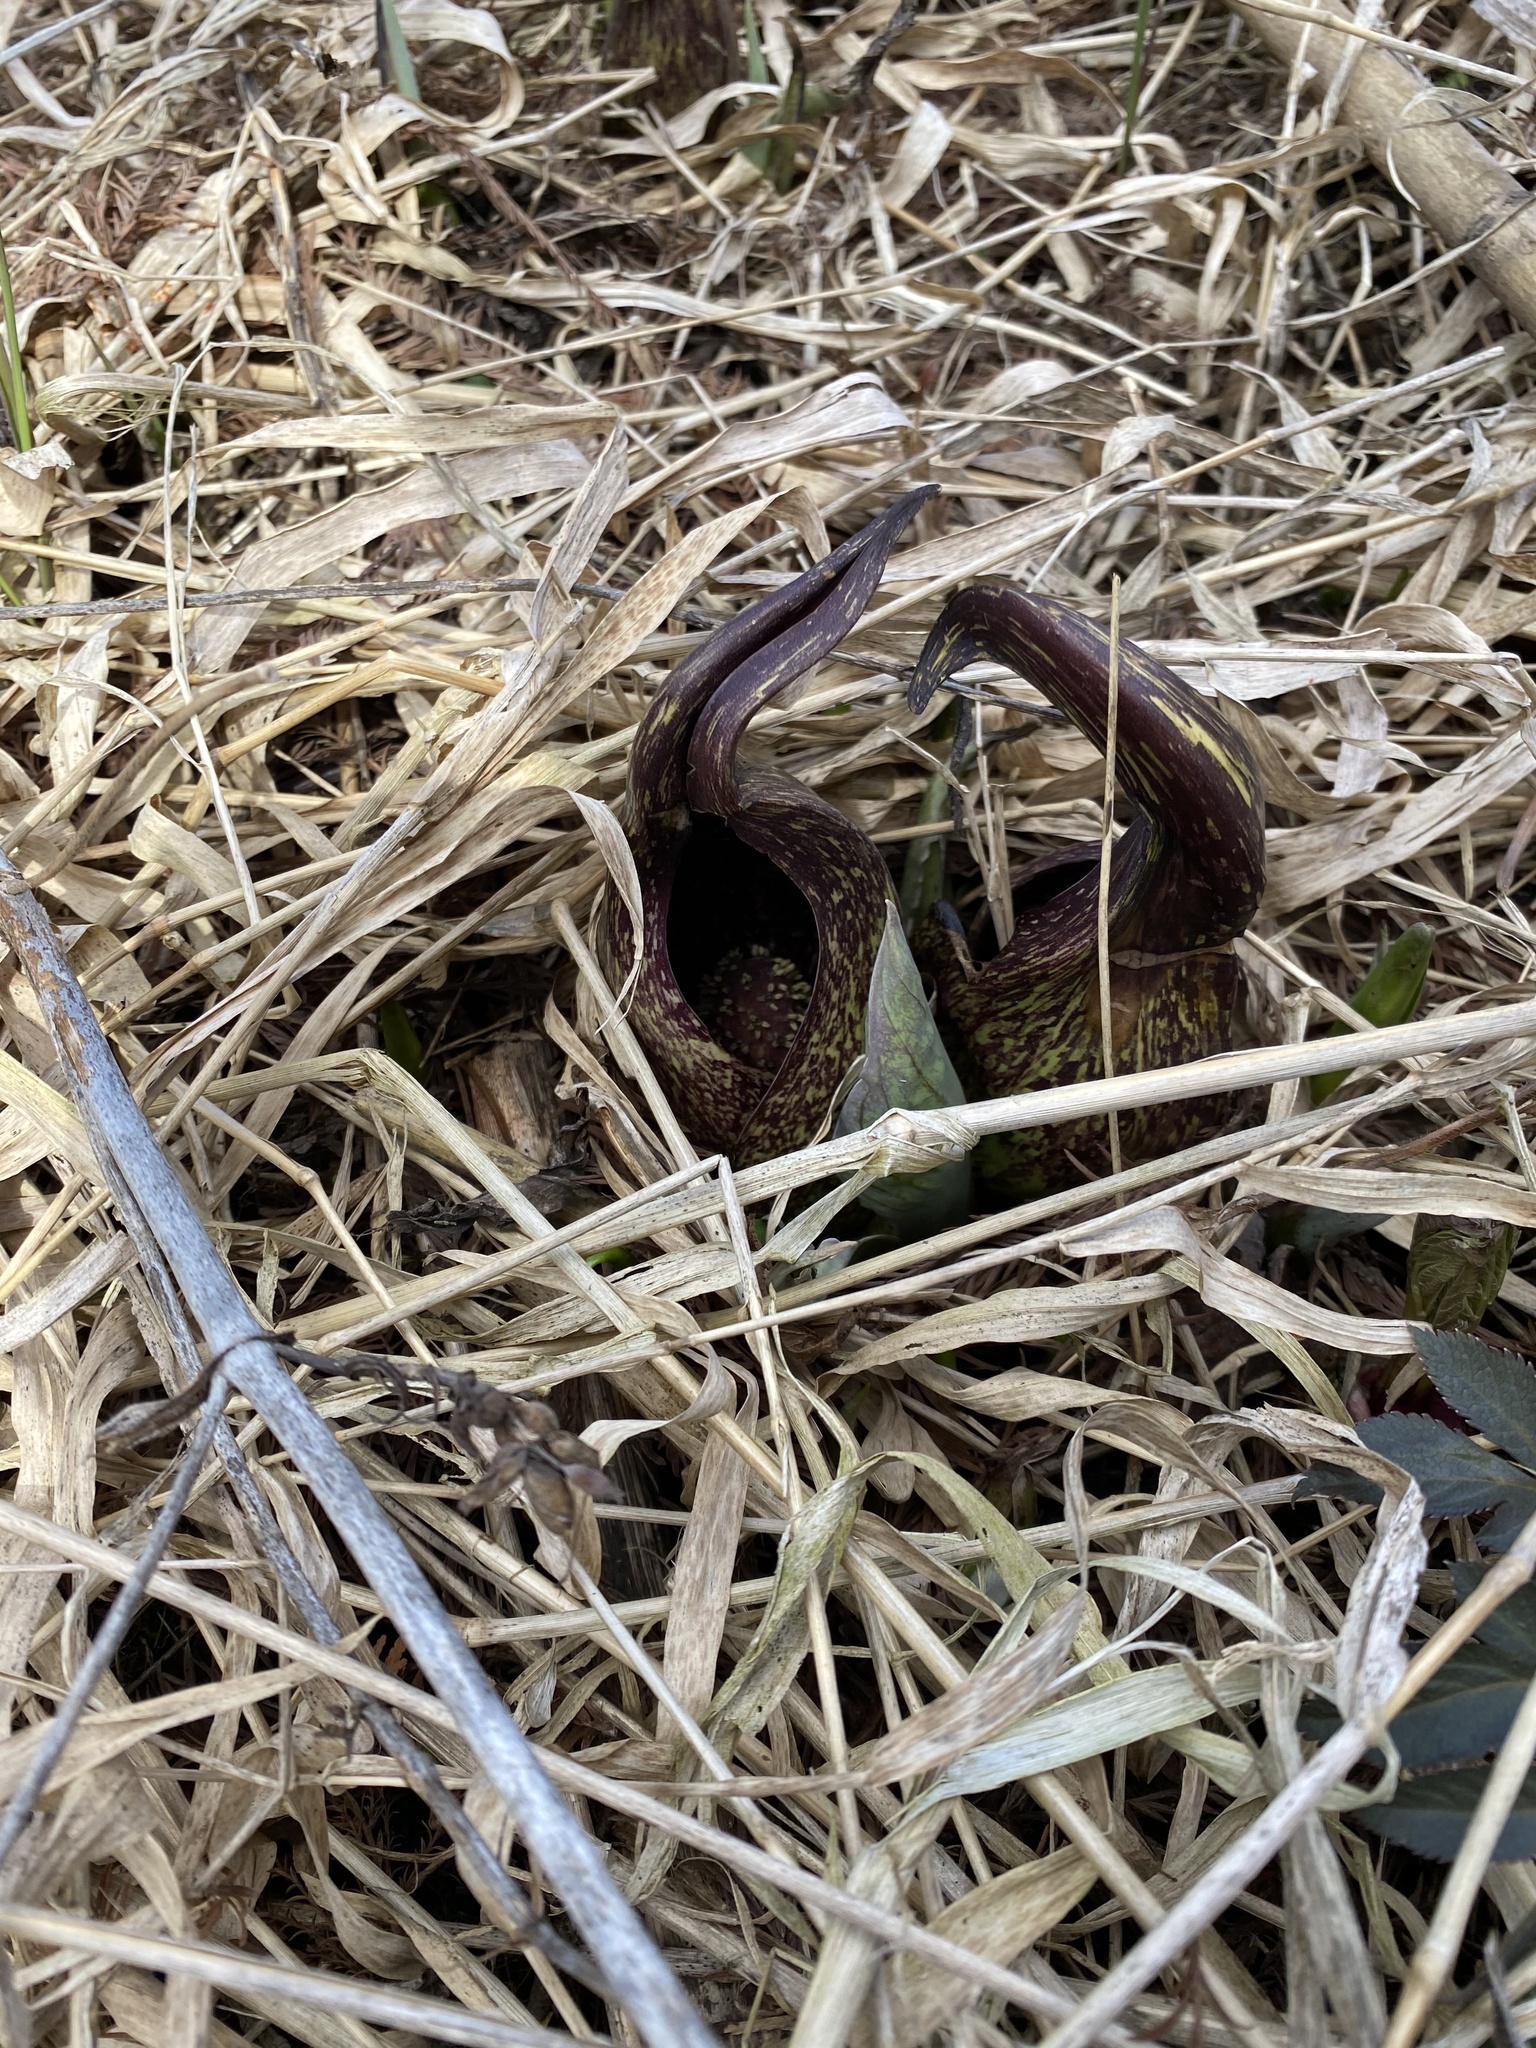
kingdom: Plantae
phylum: Tracheophyta
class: Liliopsida
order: Alismatales
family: Araceae
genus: Symplocarpus
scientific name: Symplocarpus foetidus
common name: Eastern skunk cabbage
